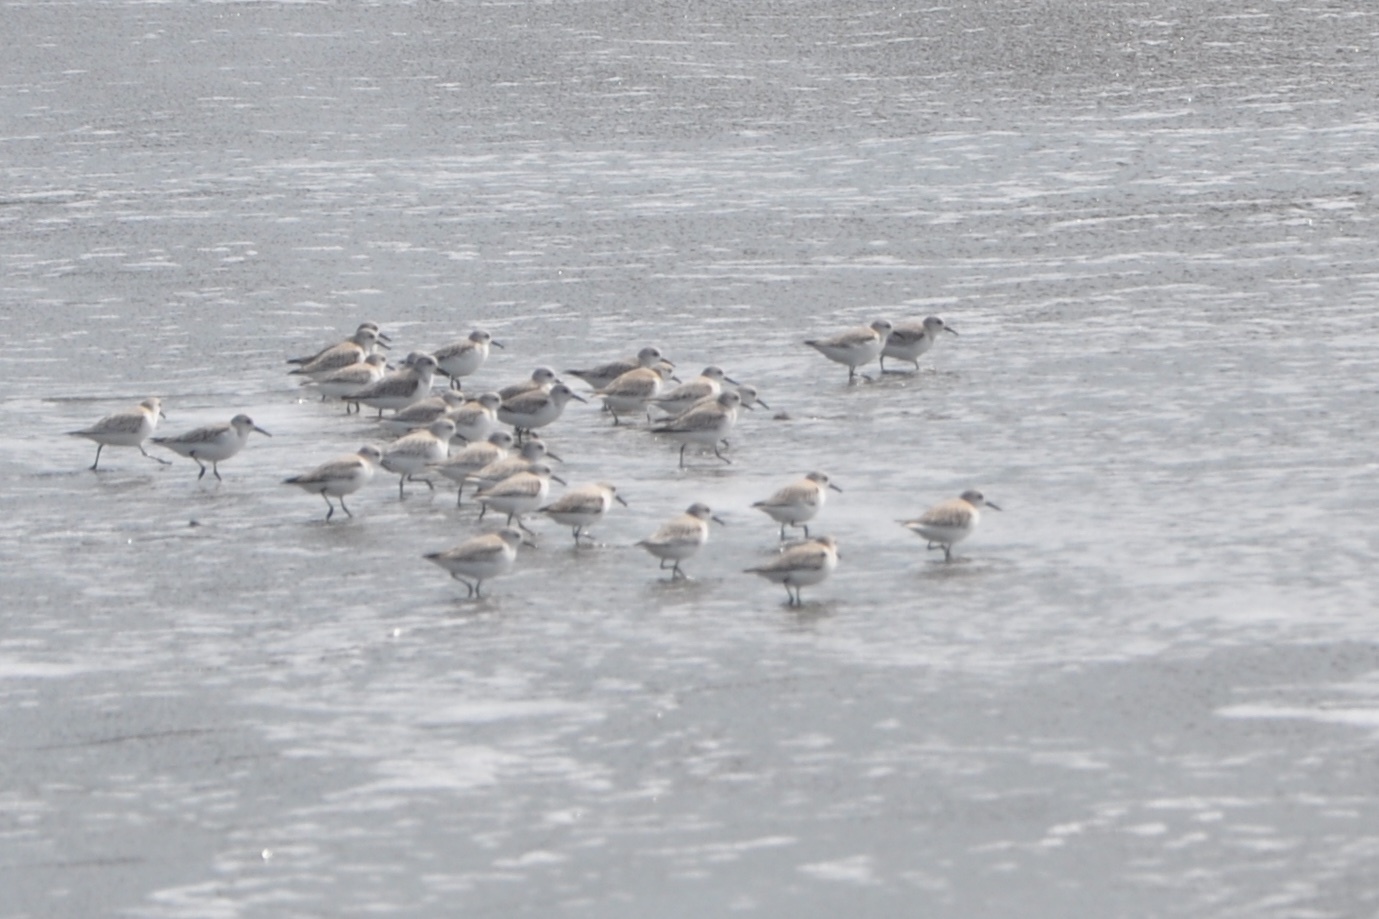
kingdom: Animalia
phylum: Chordata
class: Aves
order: Charadriiformes
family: Scolopacidae
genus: Calidris
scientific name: Calidris alba
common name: Sanderling
